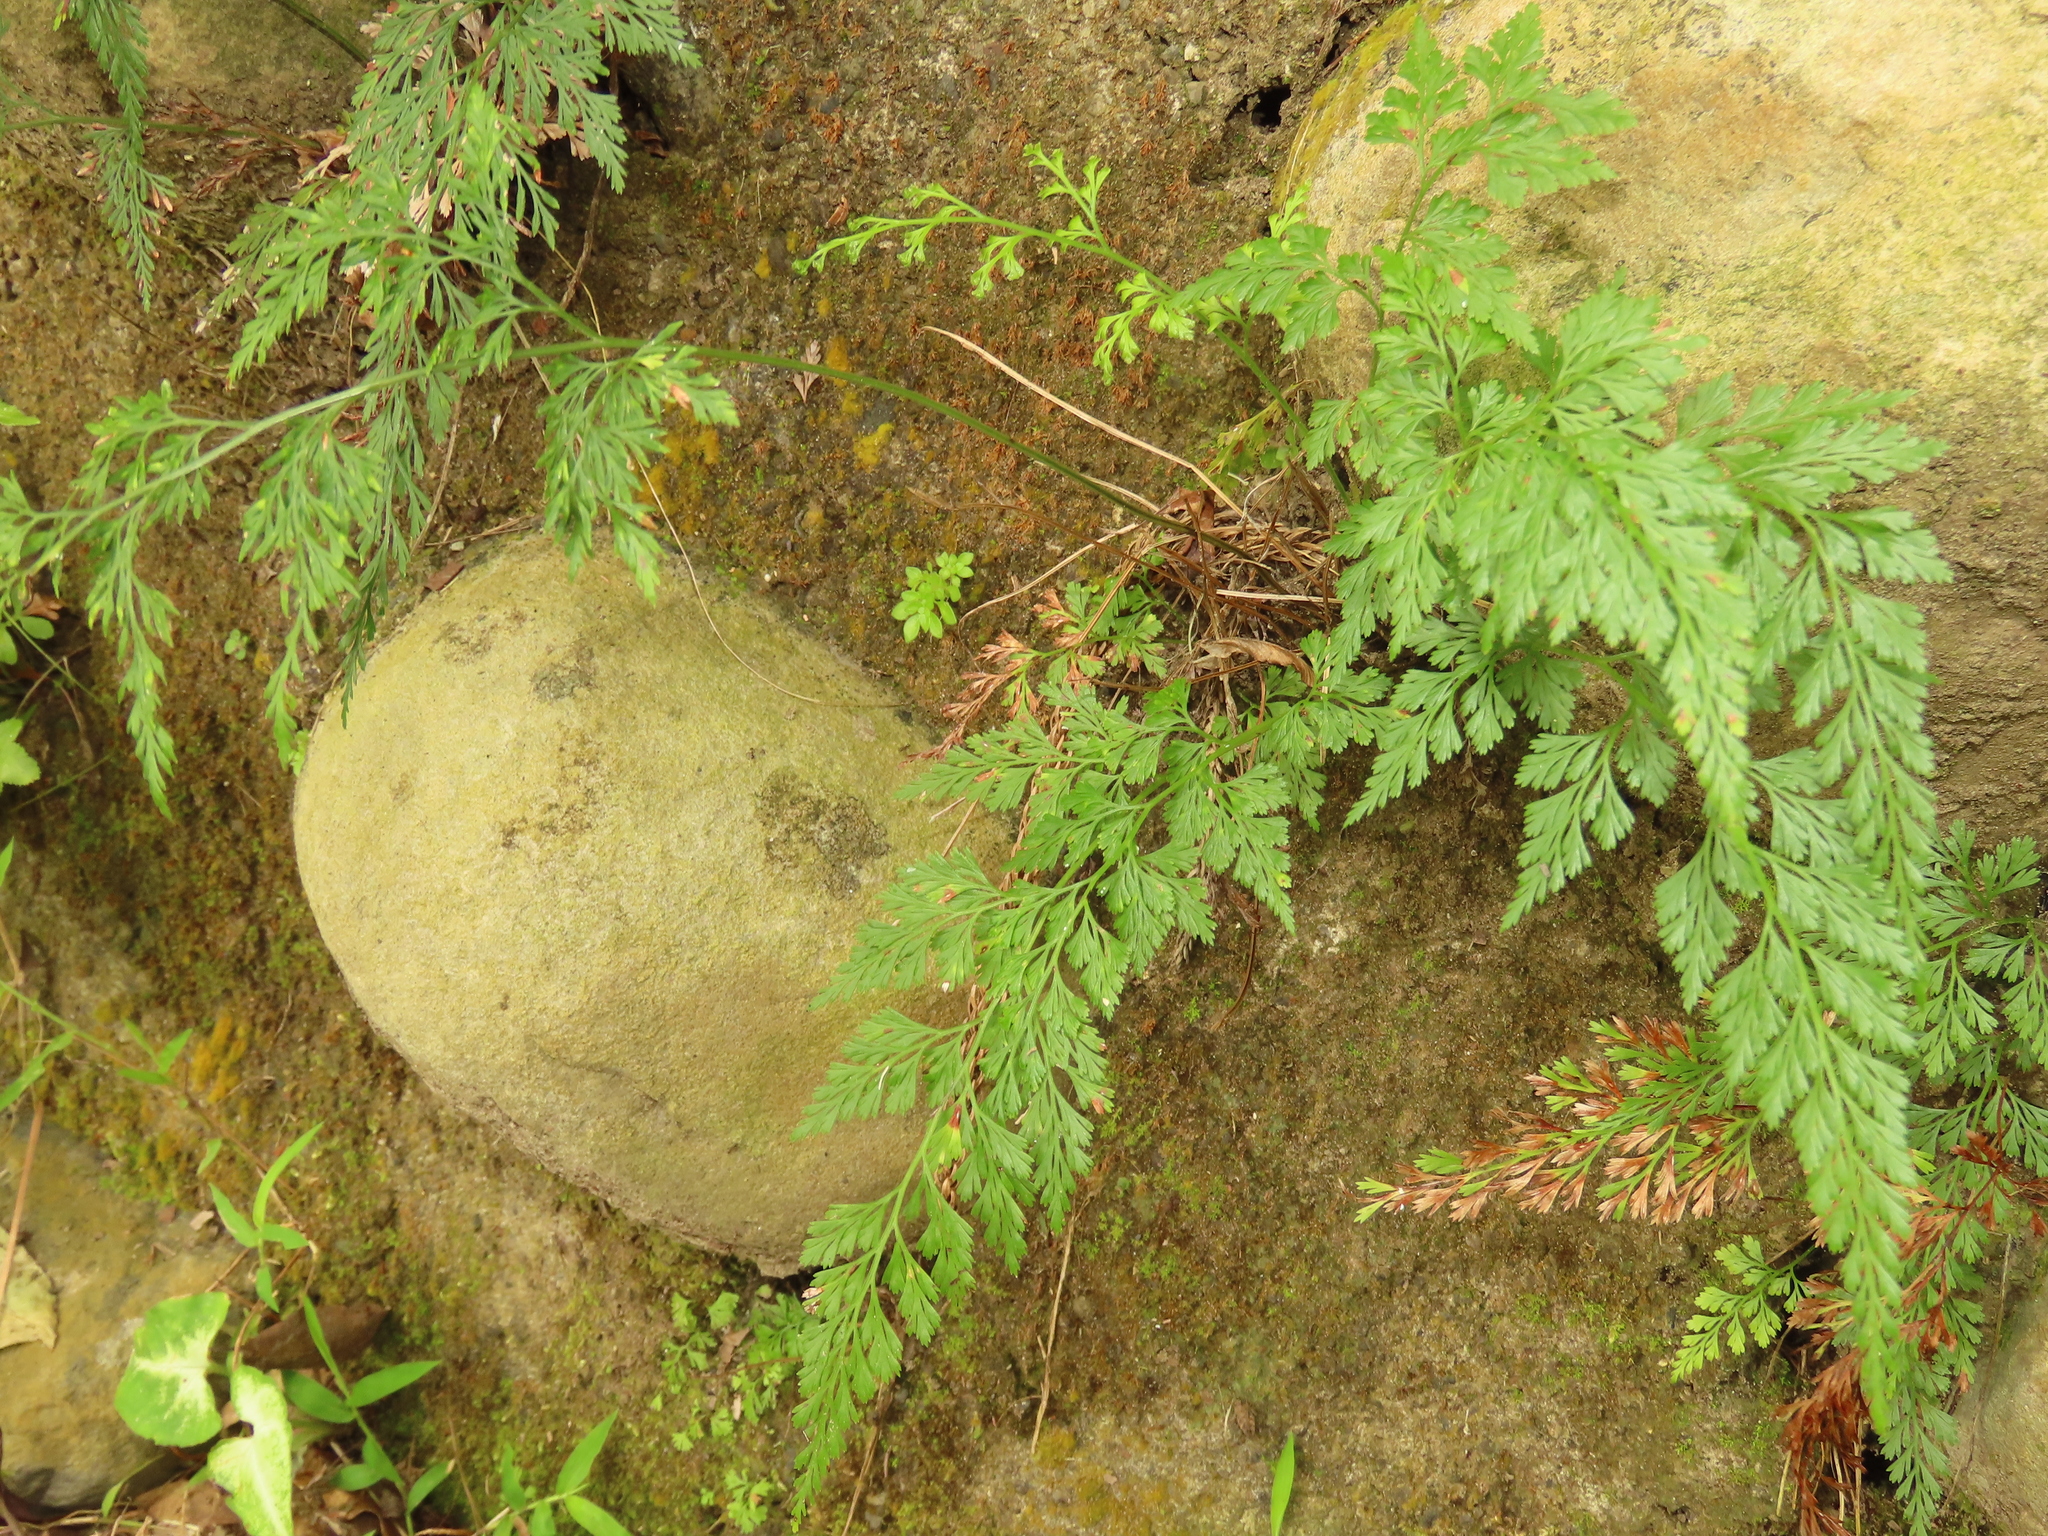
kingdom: Plantae
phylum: Tracheophyta
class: Polypodiopsida
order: Polypodiales
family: Pteridaceae
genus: Onychium
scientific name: Onychium japonicum
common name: Carrot fern
